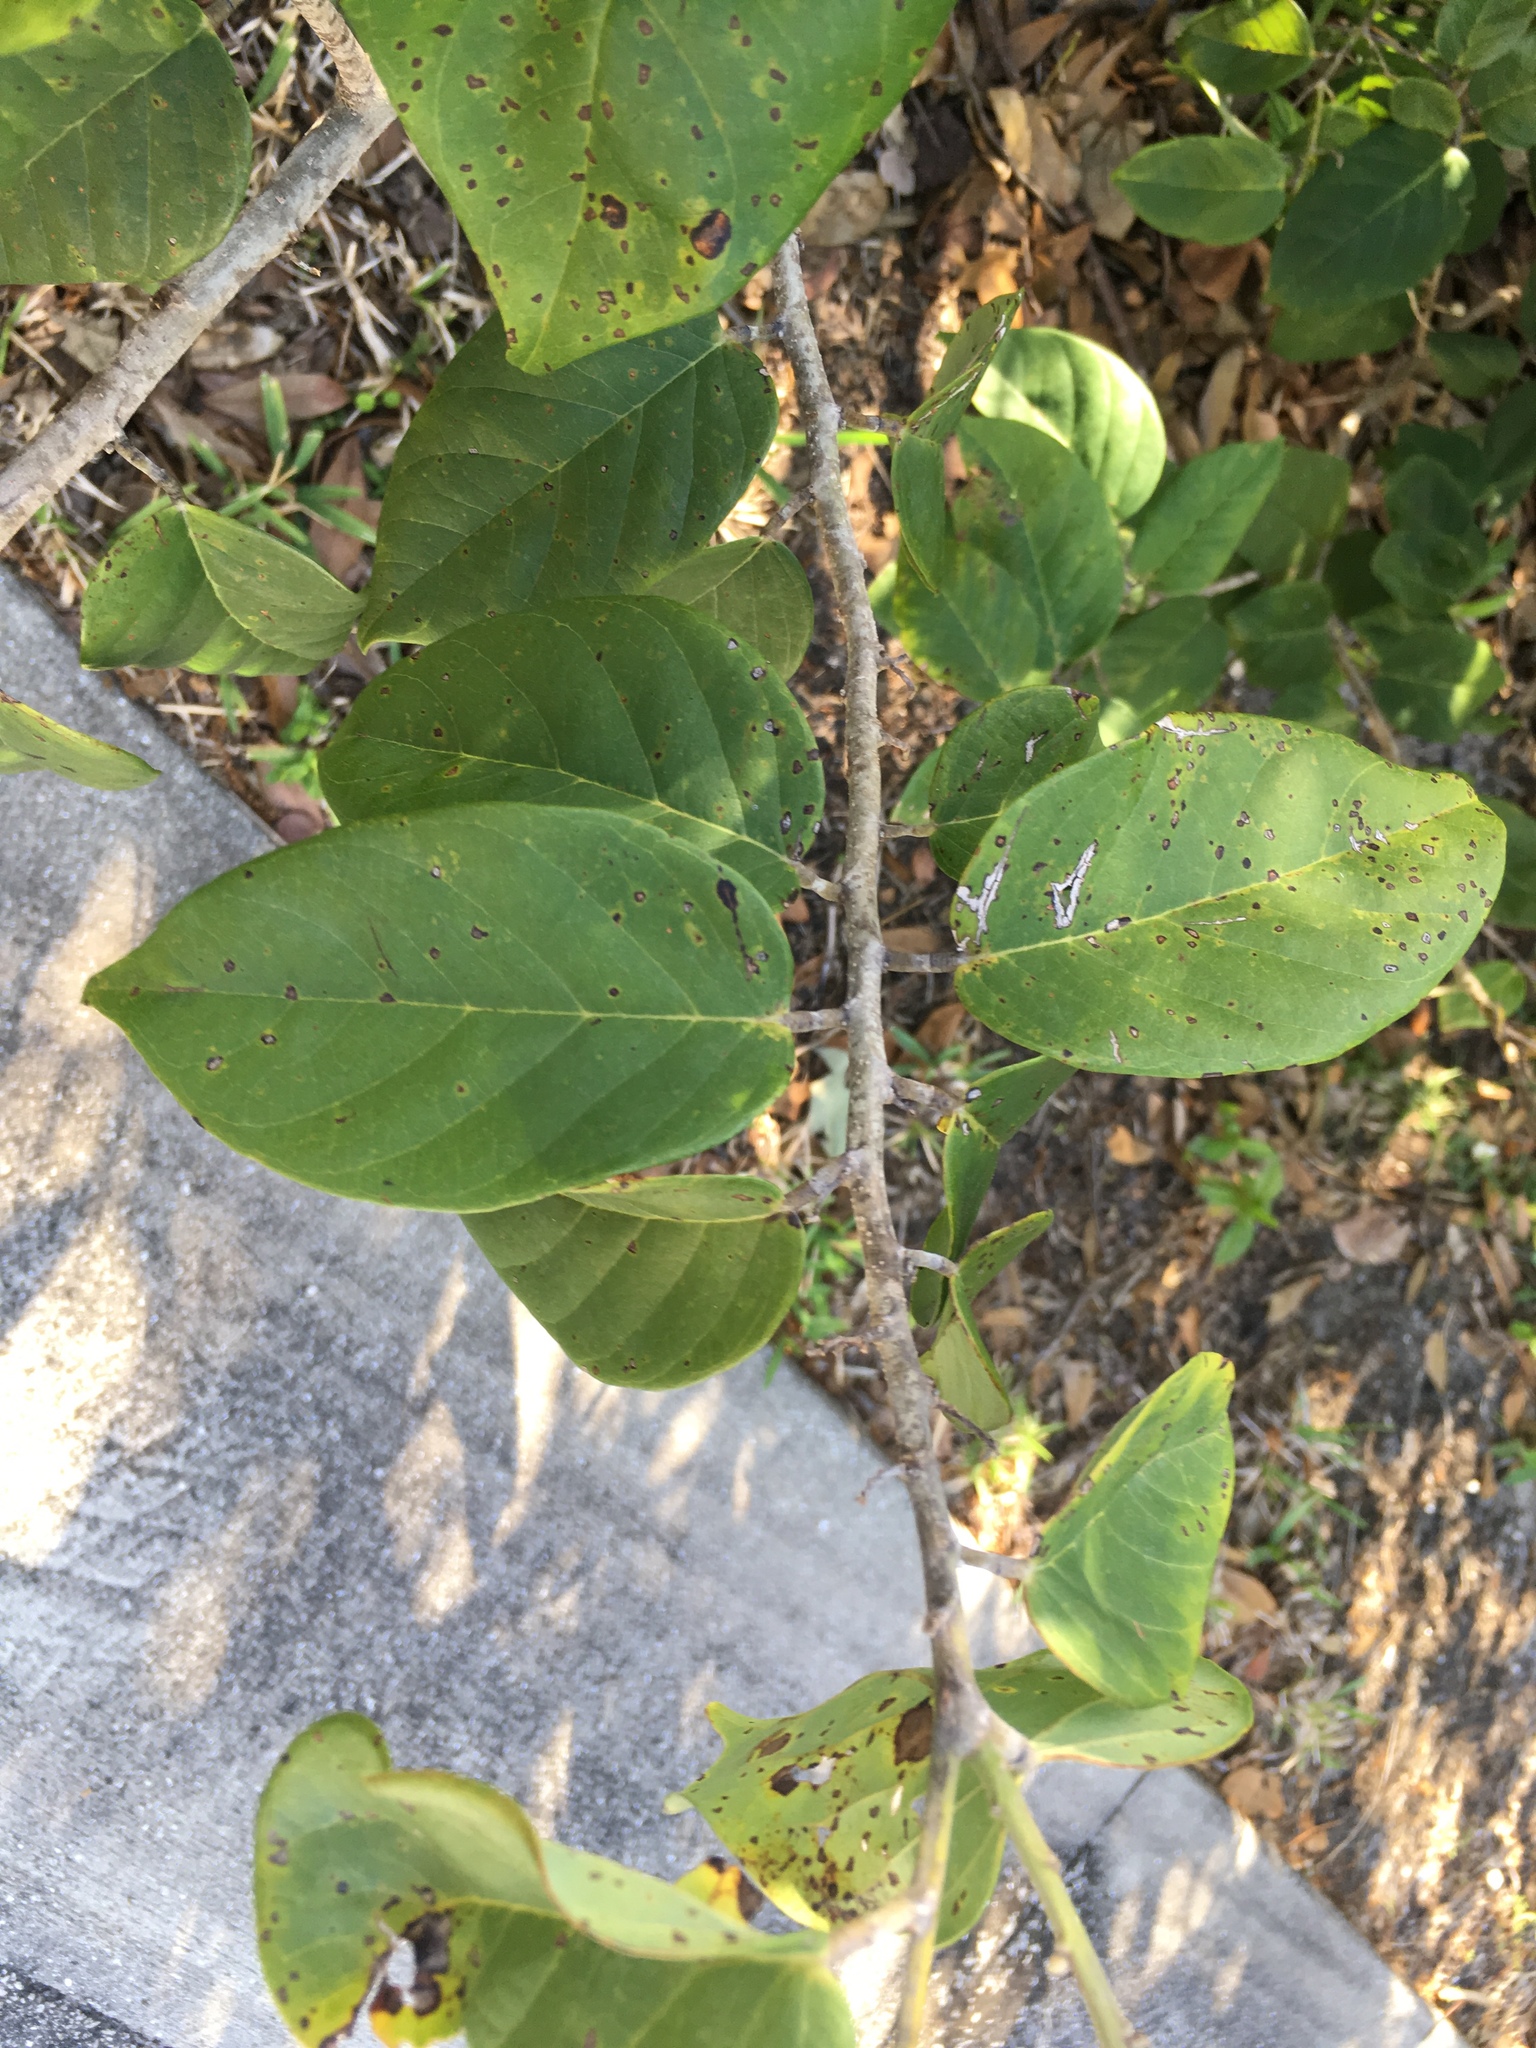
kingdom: Plantae
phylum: Tracheophyta
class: Magnoliopsida
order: Fabales
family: Fabaceae
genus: Dalbergia
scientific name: Dalbergia ecastaphyllum
